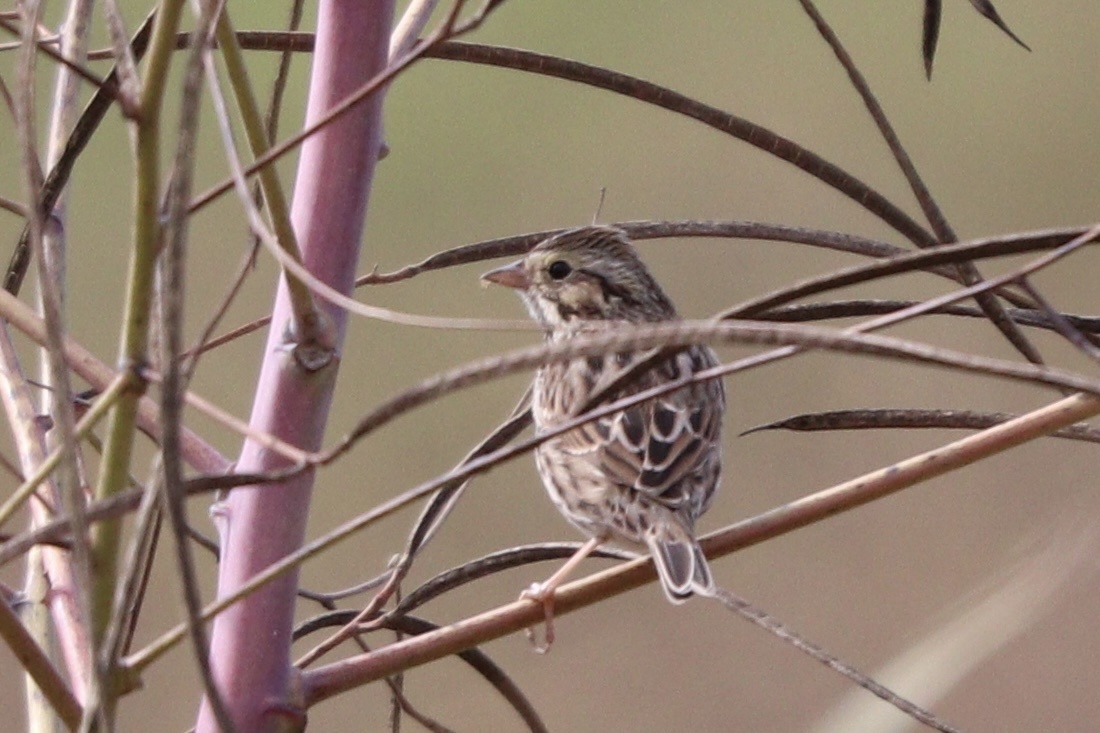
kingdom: Animalia
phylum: Chordata
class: Aves
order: Passeriformes
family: Passerellidae
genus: Passerculus
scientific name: Passerculus sandwichensis
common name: Savannah sparrow
